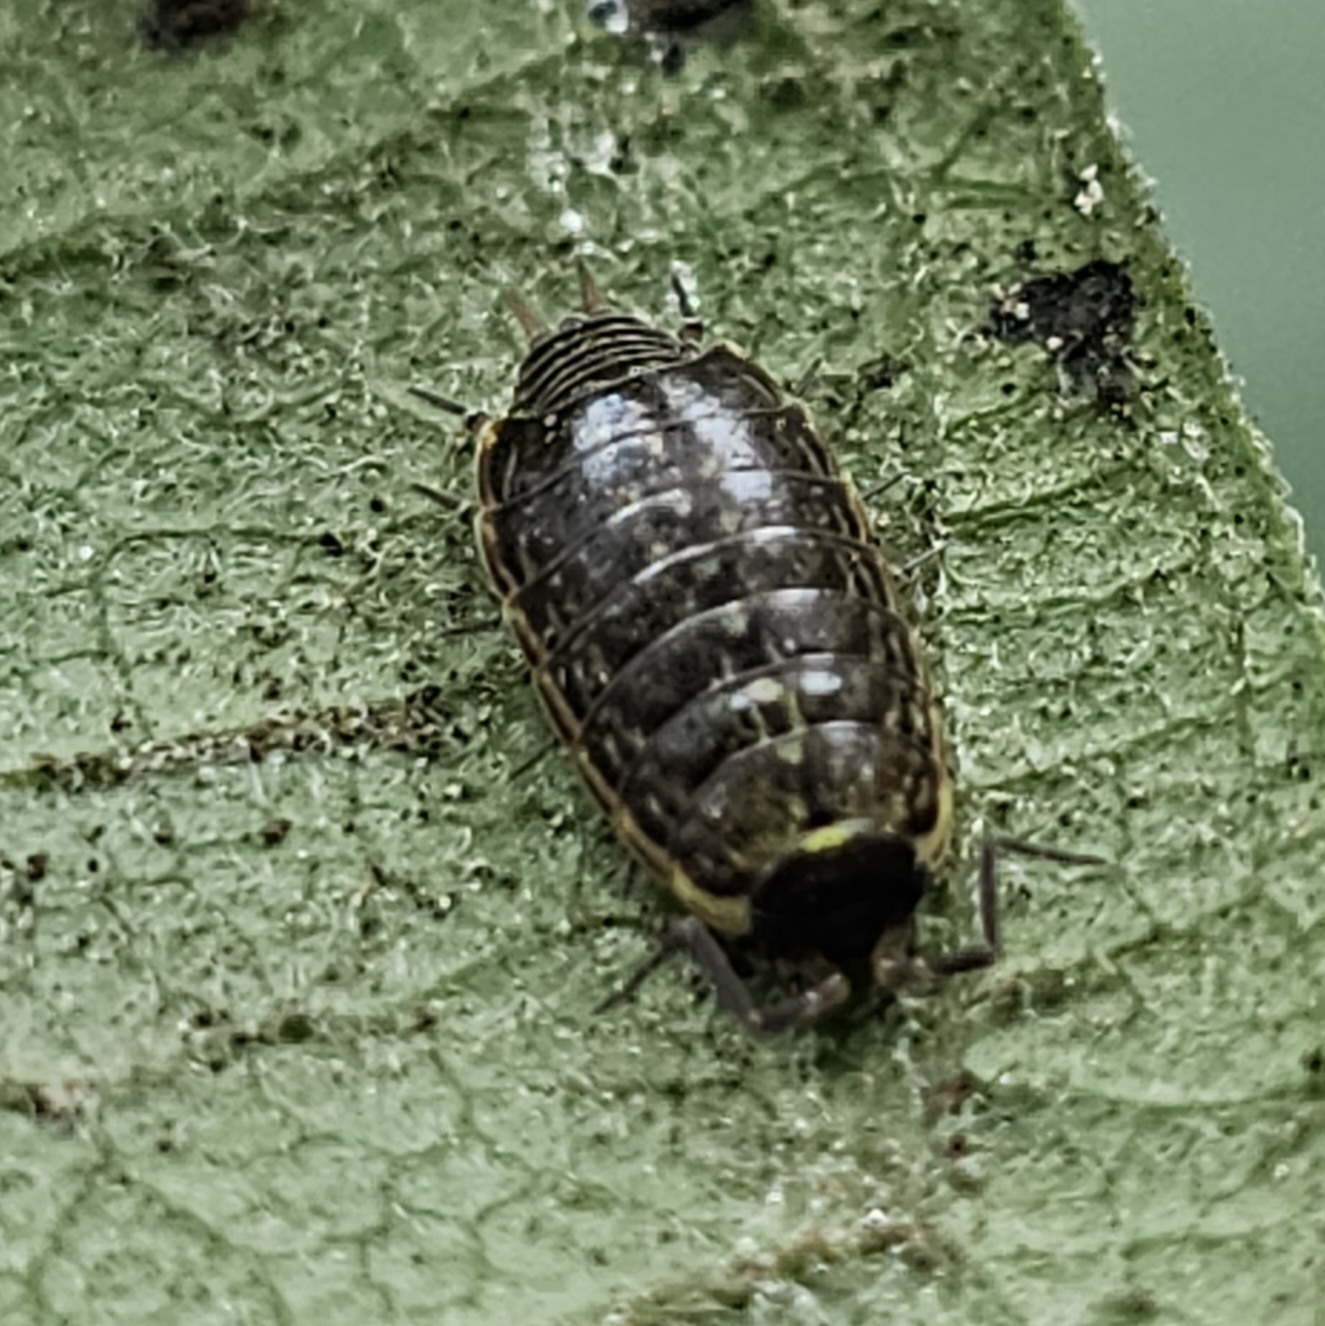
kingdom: Animalia
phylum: Arthropoda
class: Malacostraca
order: Isopoda
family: Philosciidae
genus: Philoscia
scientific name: Philoscia muscorum
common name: Common striped woodlouse
